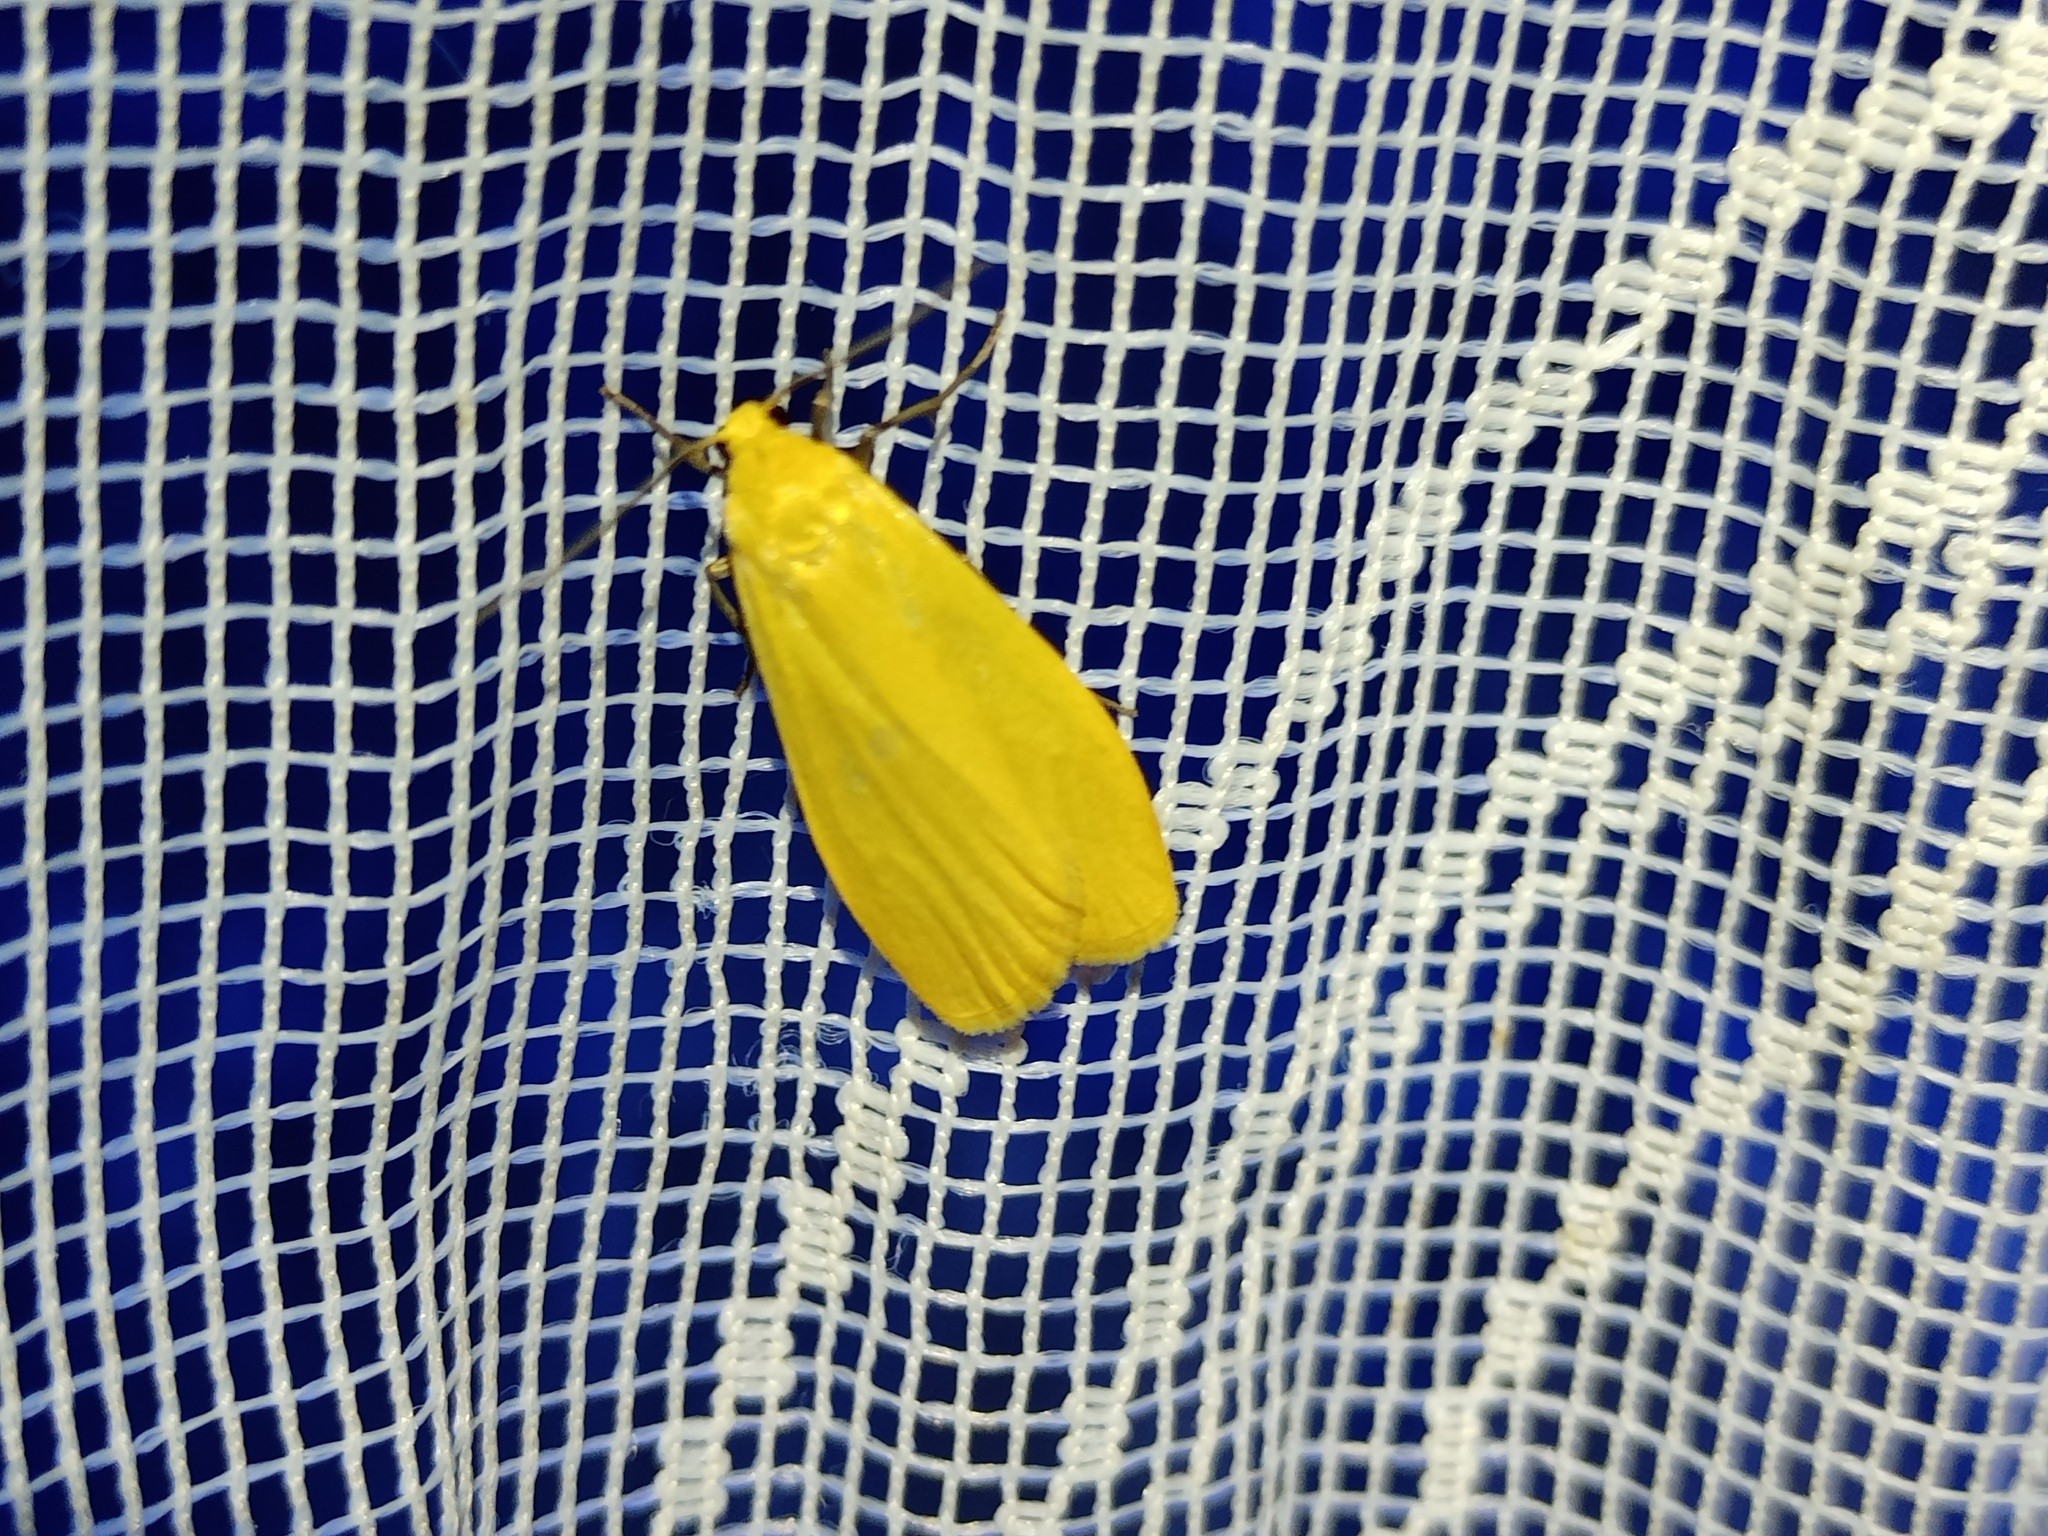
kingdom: Animalia
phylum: Arthropoda
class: Insecta
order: Lepidoptera
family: Erebidae
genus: Wittia
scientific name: Wittia sororcula
